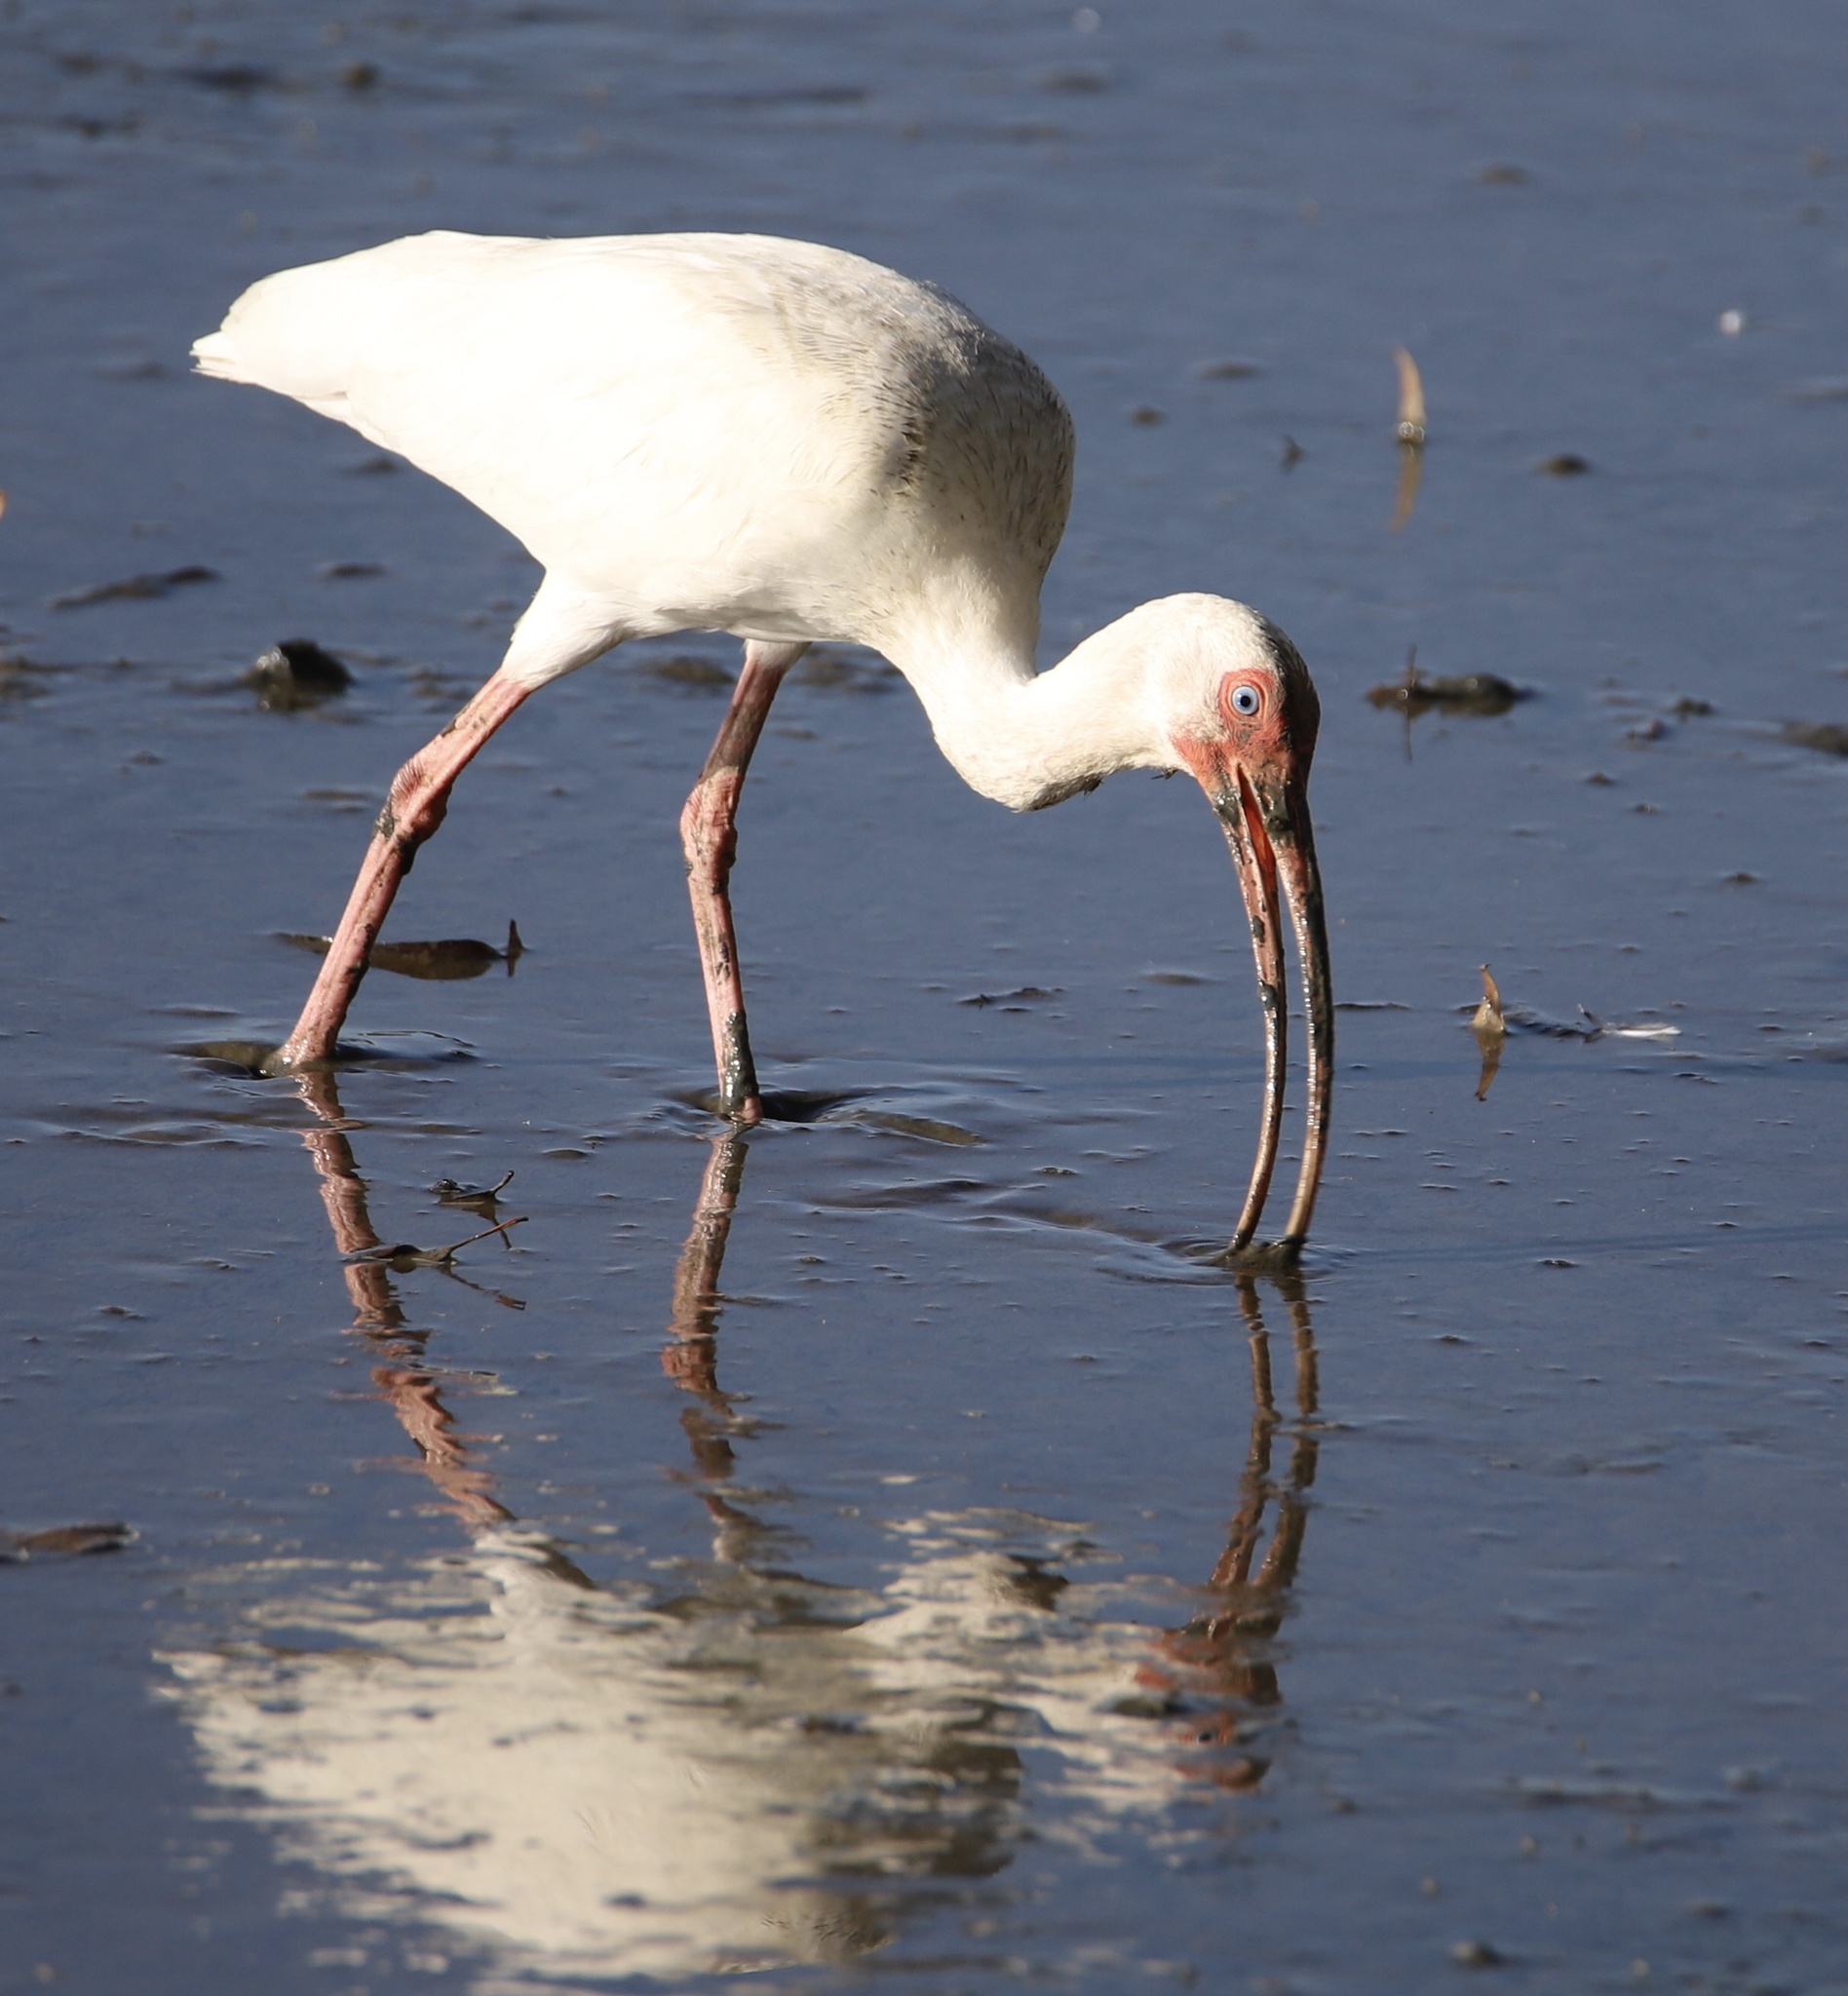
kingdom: Animalia
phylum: Chordata
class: Aves
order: Pelecaniformes
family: Threskiornithidae
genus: Eudocimus
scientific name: Eudocimus albus
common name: White ibis
